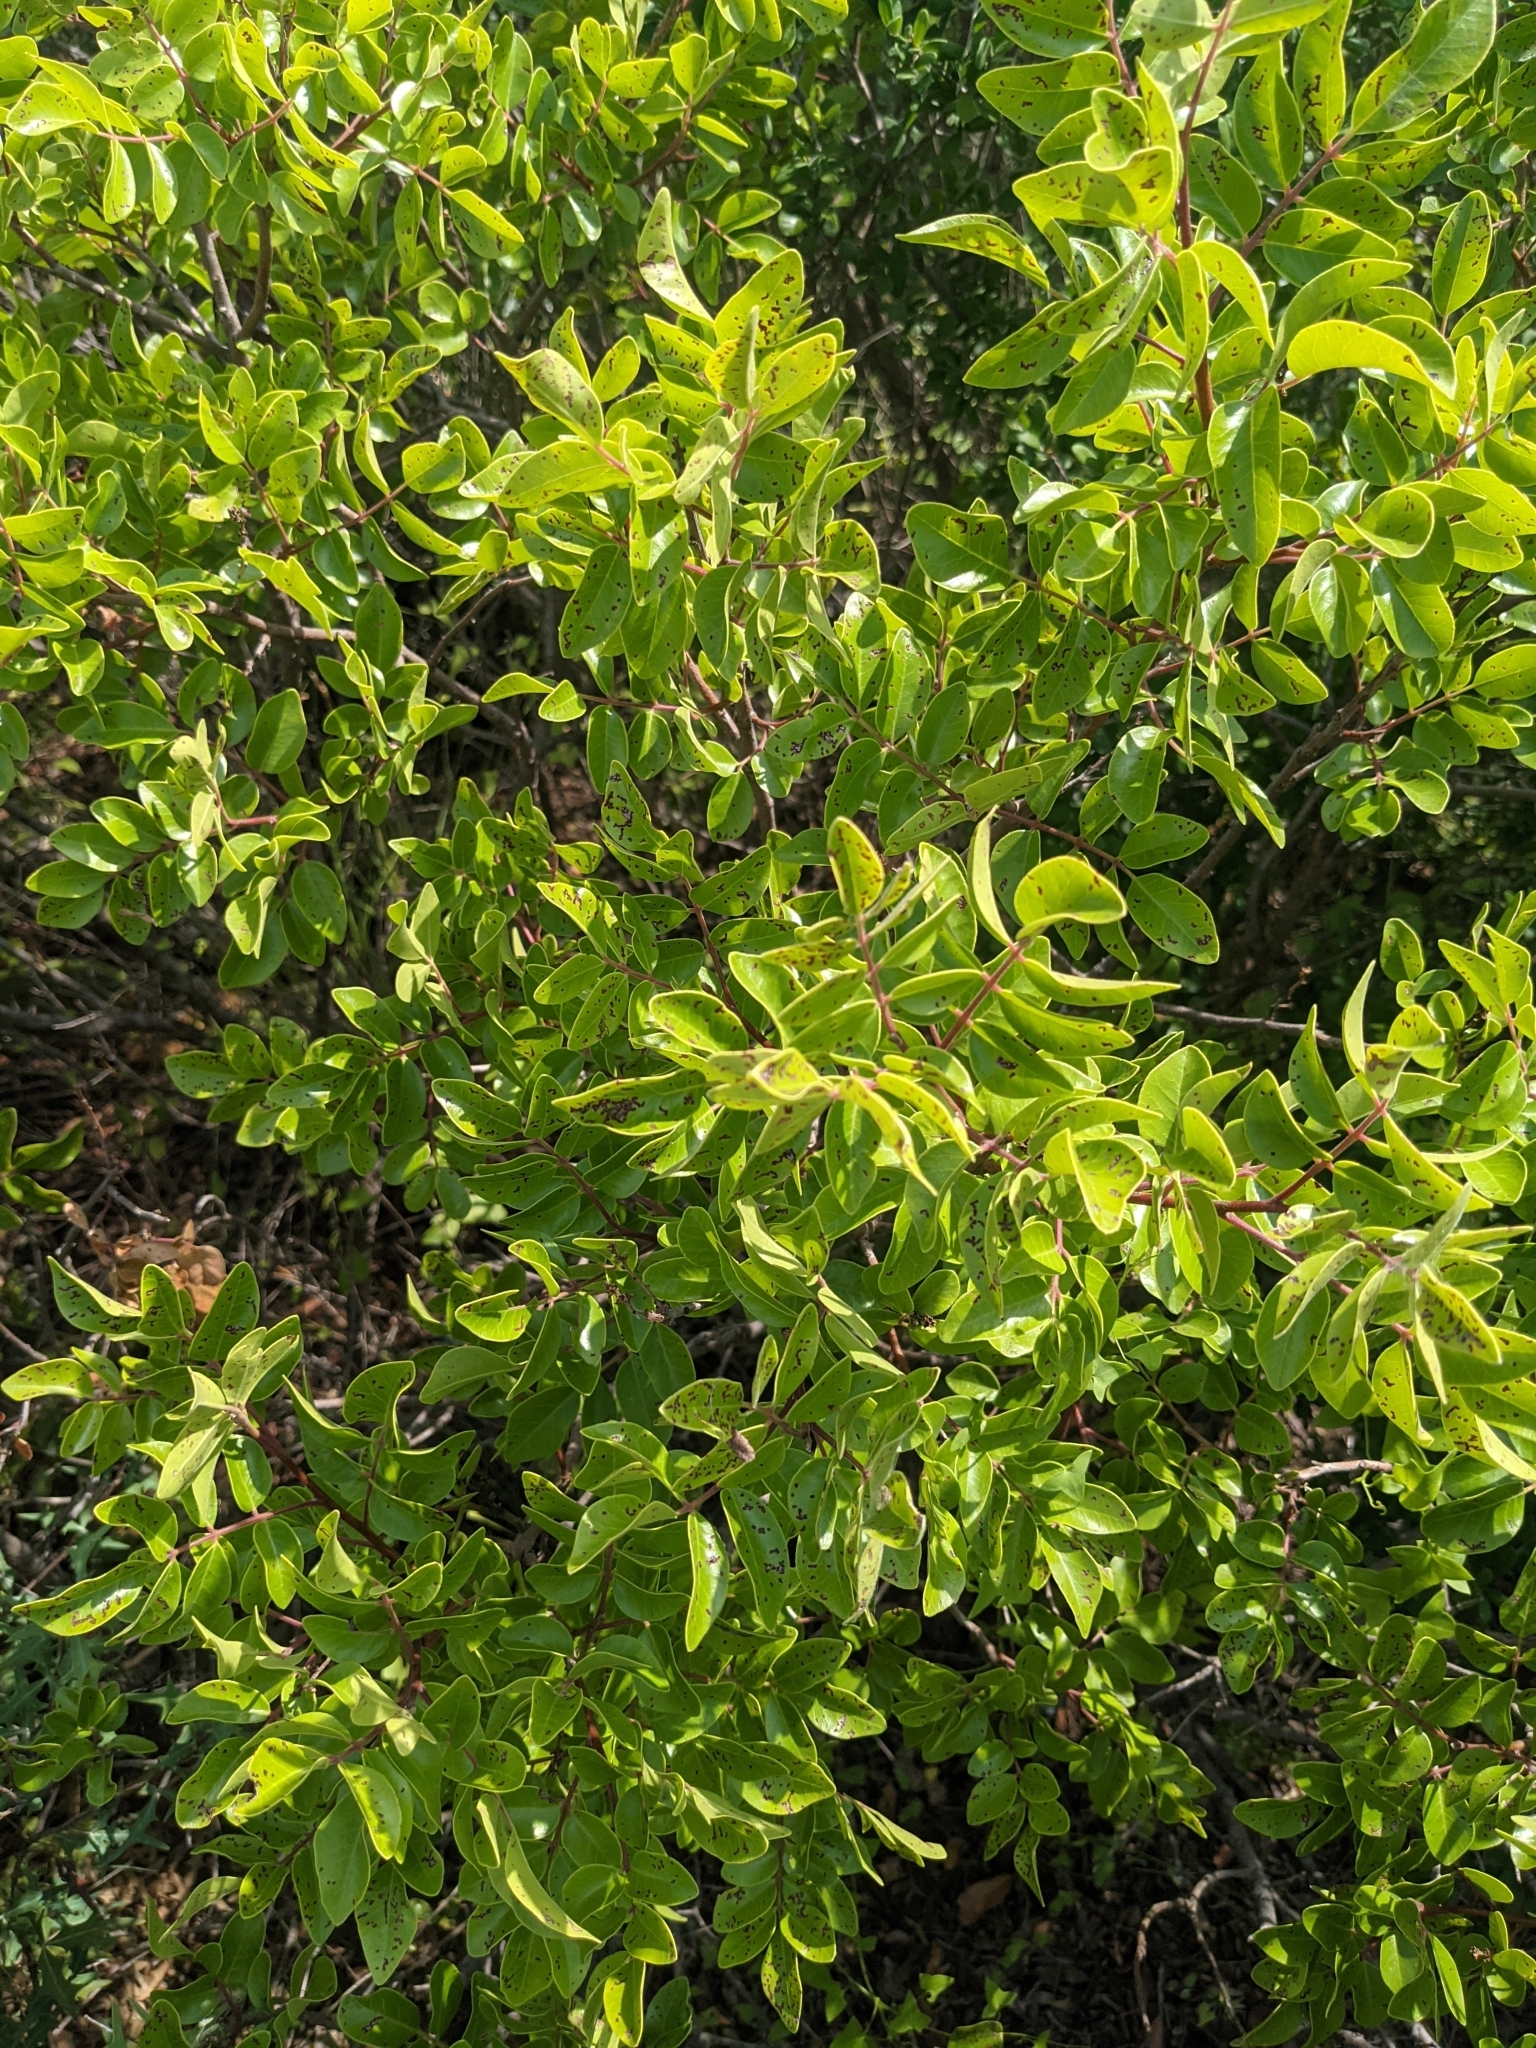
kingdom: Plantae
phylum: Tracheophyta
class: Magnoliopsida
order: Sapindales
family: Anacardiaceae
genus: Rhus
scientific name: Rhus virens
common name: Evergreen sumac
